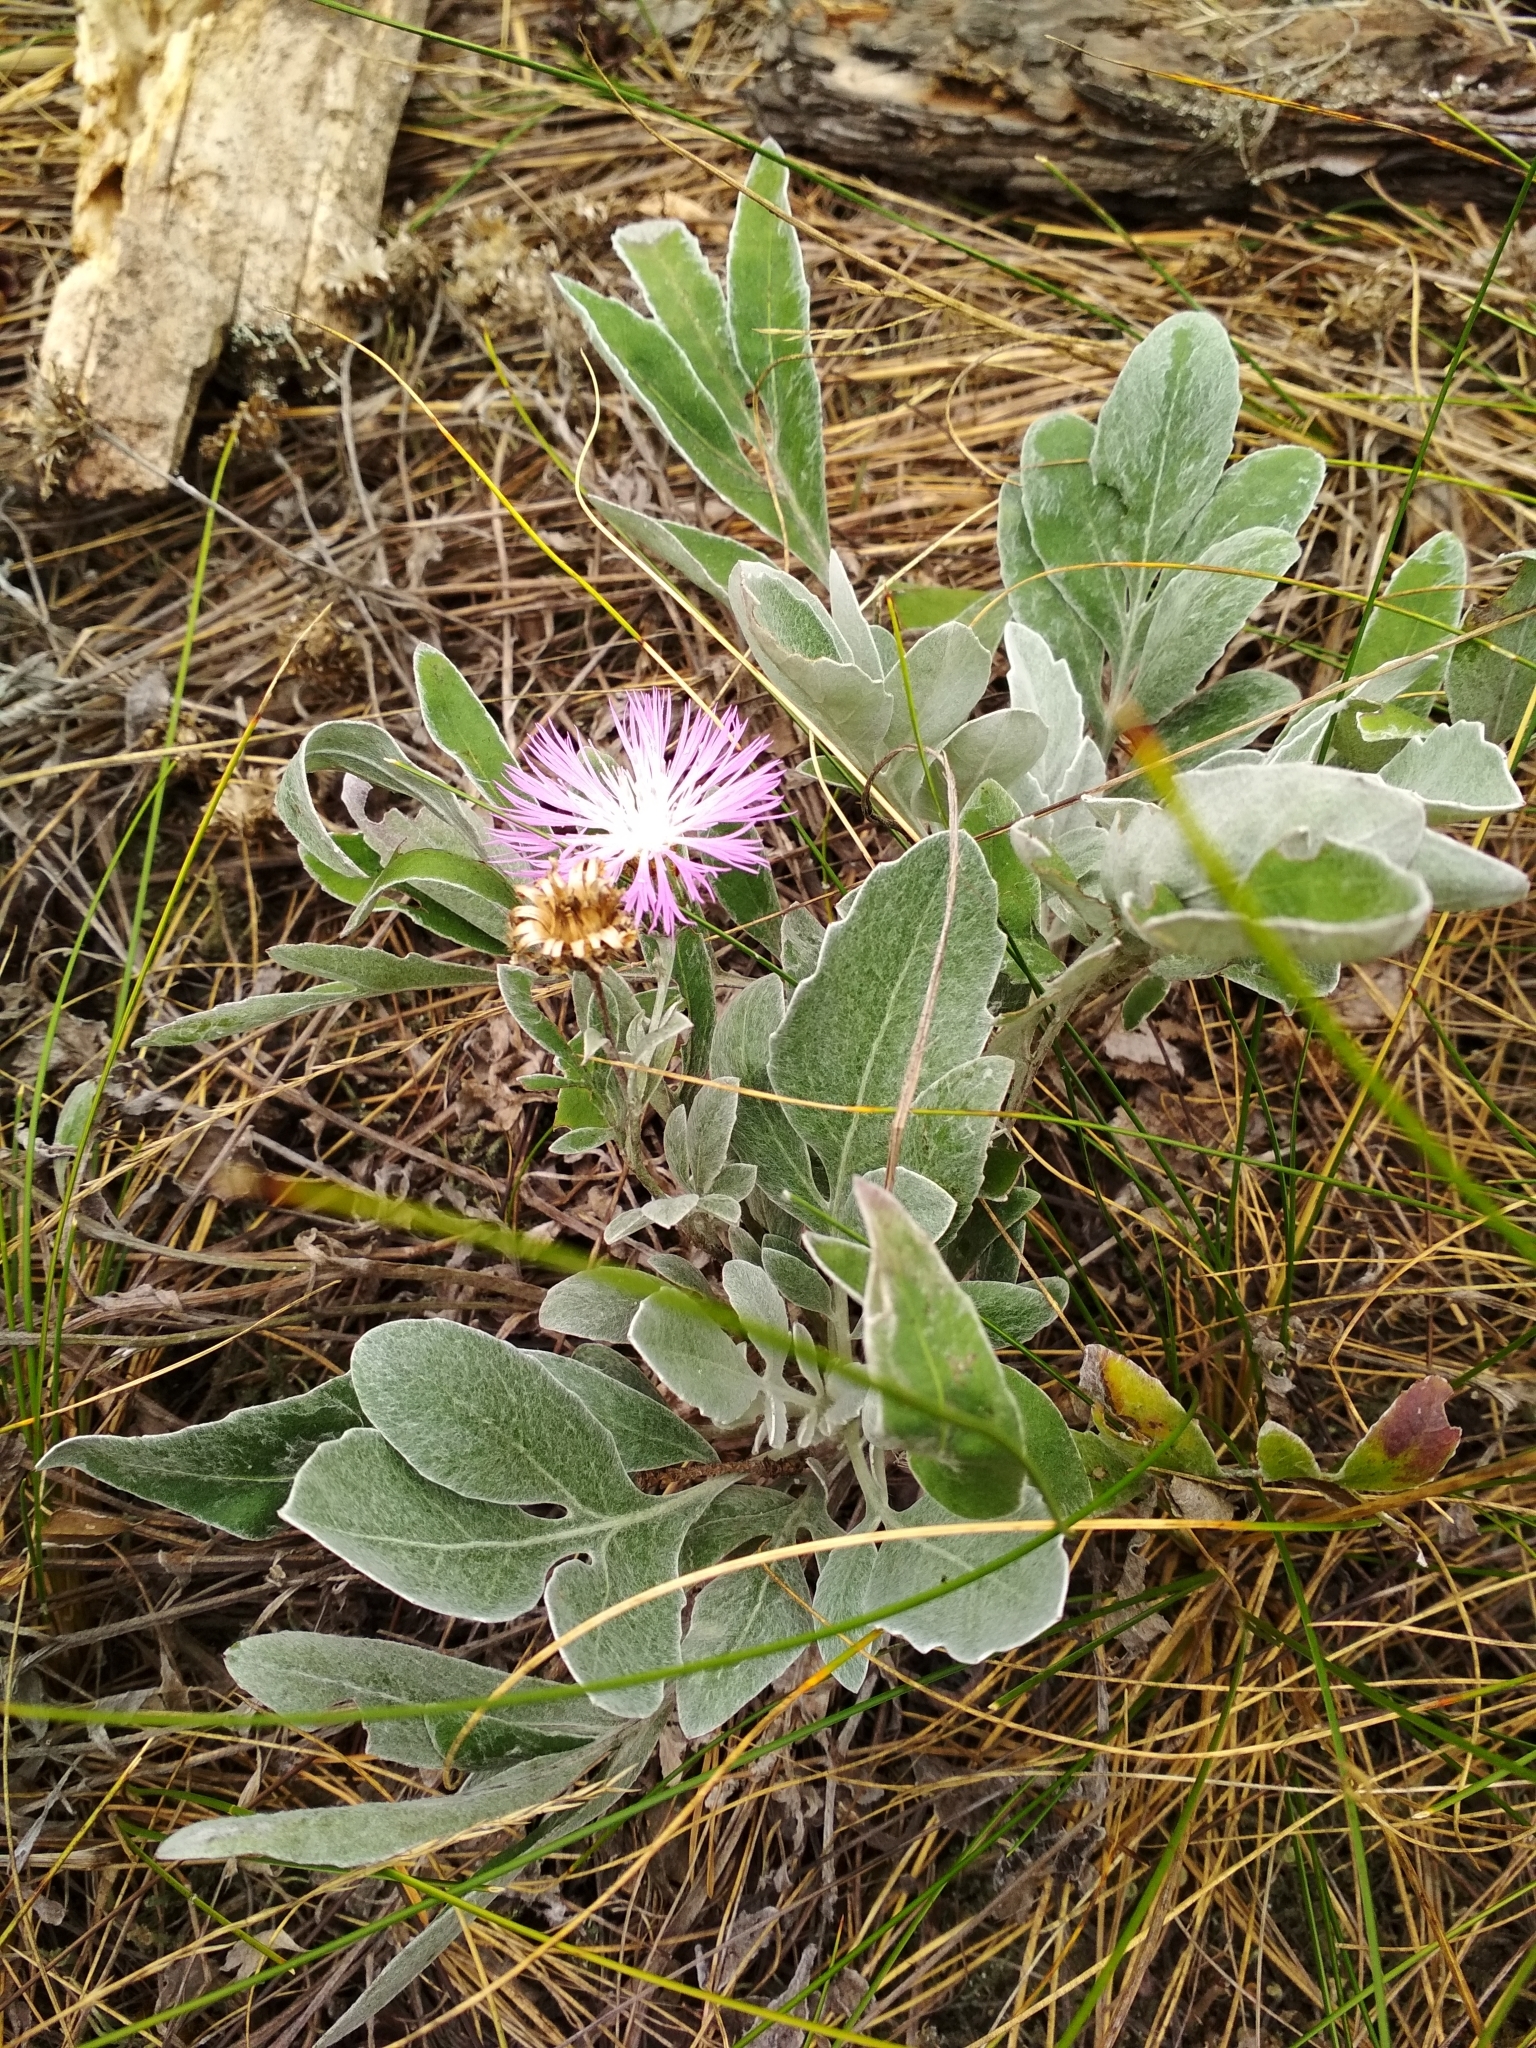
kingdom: Plantae
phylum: Tracheophyta
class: Magnoliopsida
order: Asterales
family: Asteraceae
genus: Psephellus
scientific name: Psephellus sumensis
